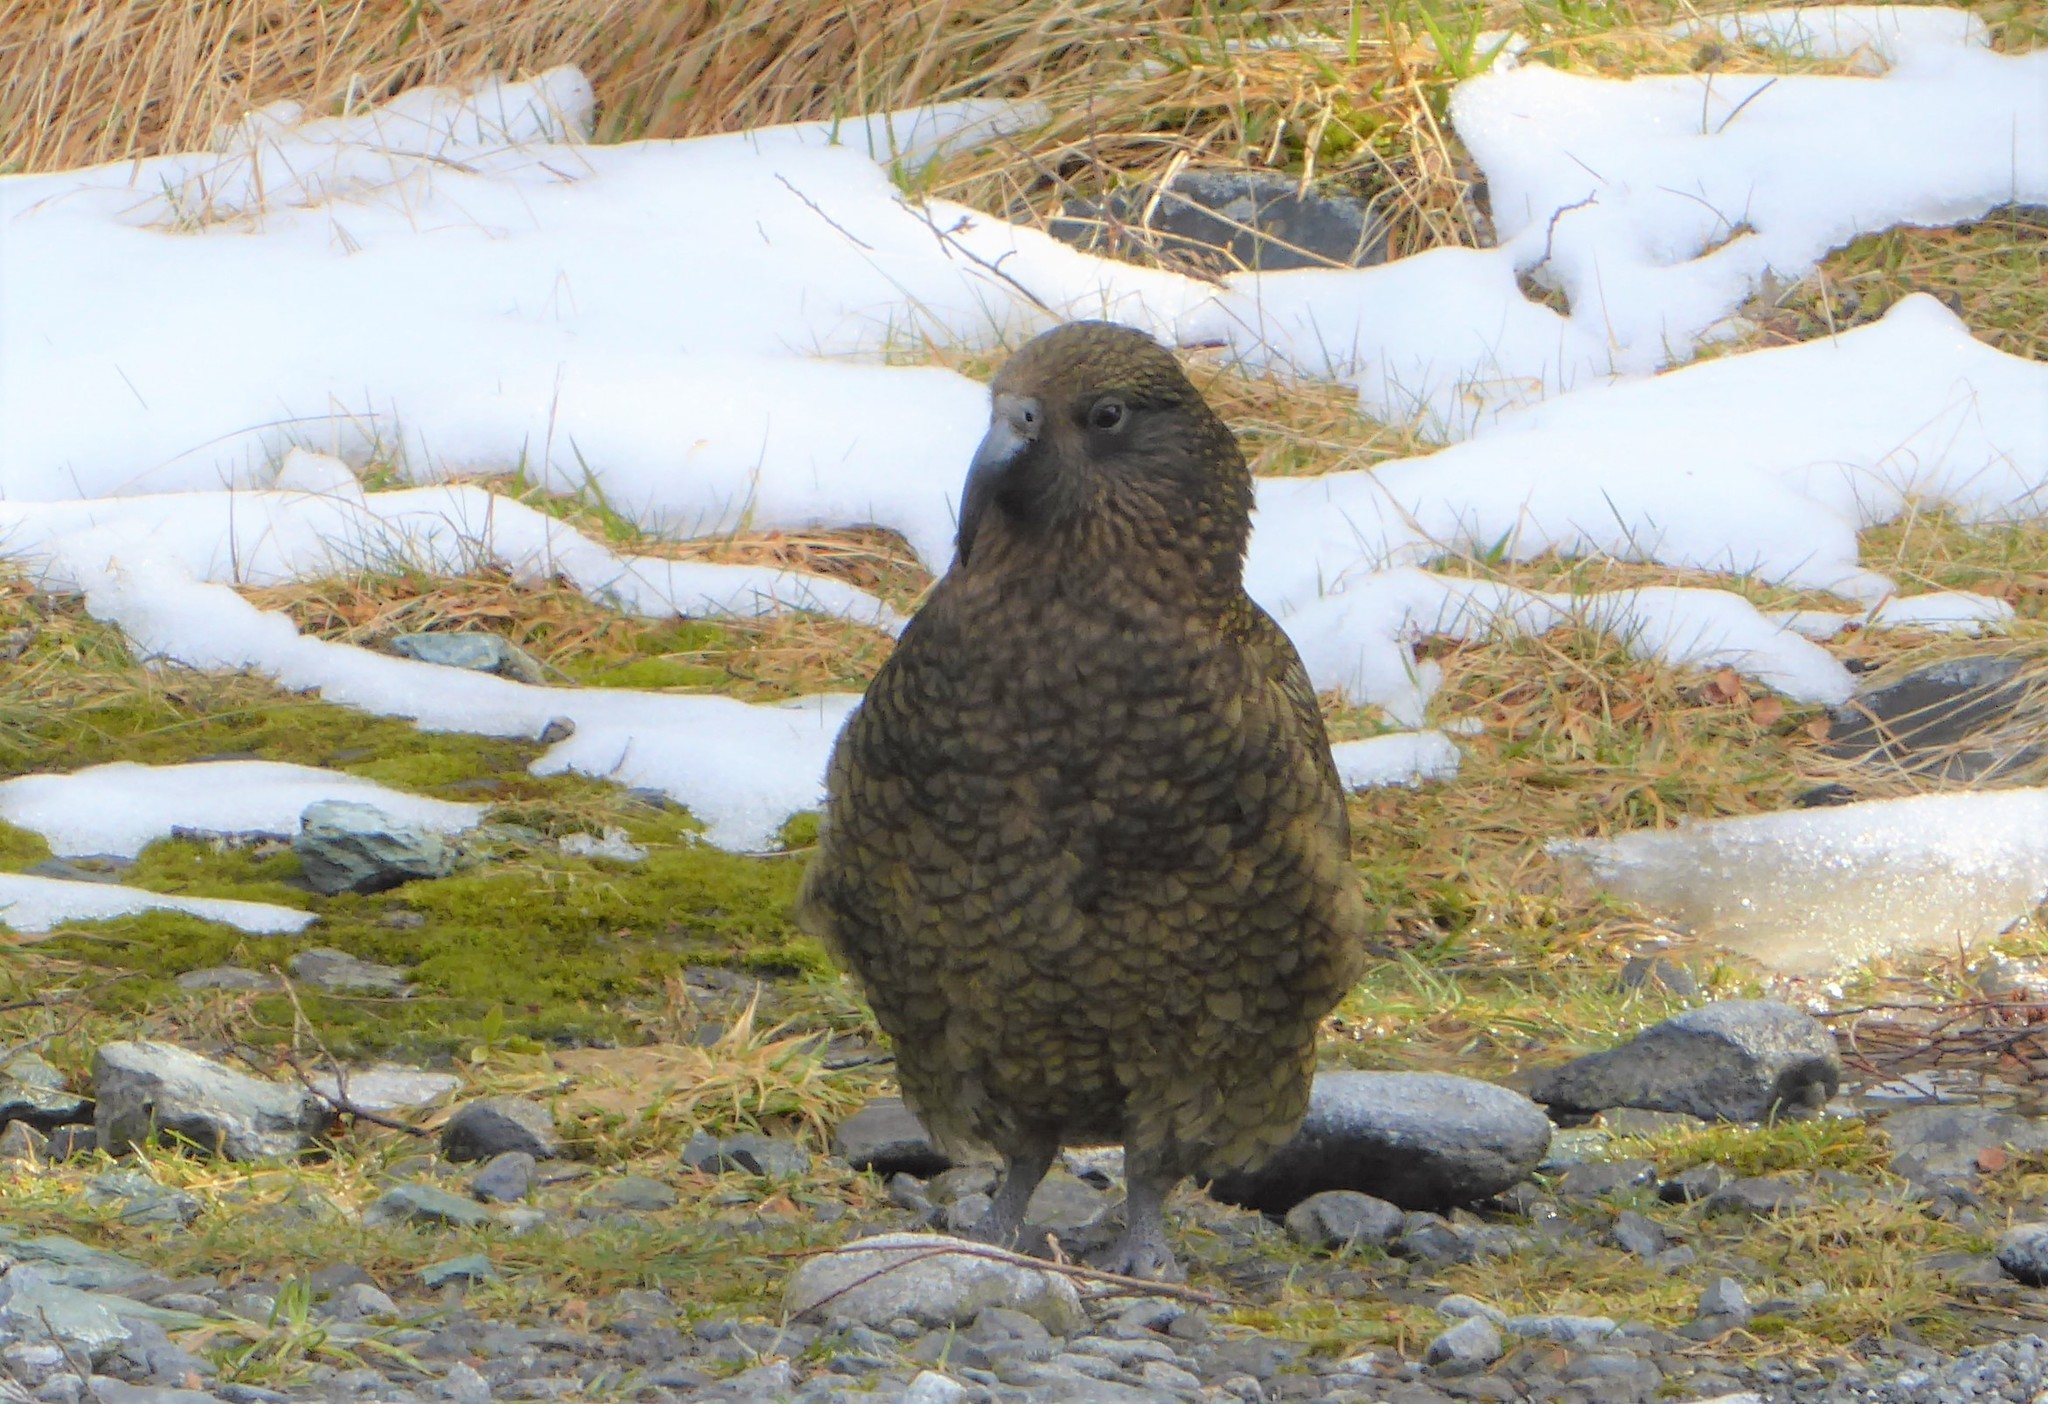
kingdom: Animalia
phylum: Chordata
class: Aves
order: Psittaciformes
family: Psittacidae
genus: Nestor
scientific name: Nestor notabilis
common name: Kea
